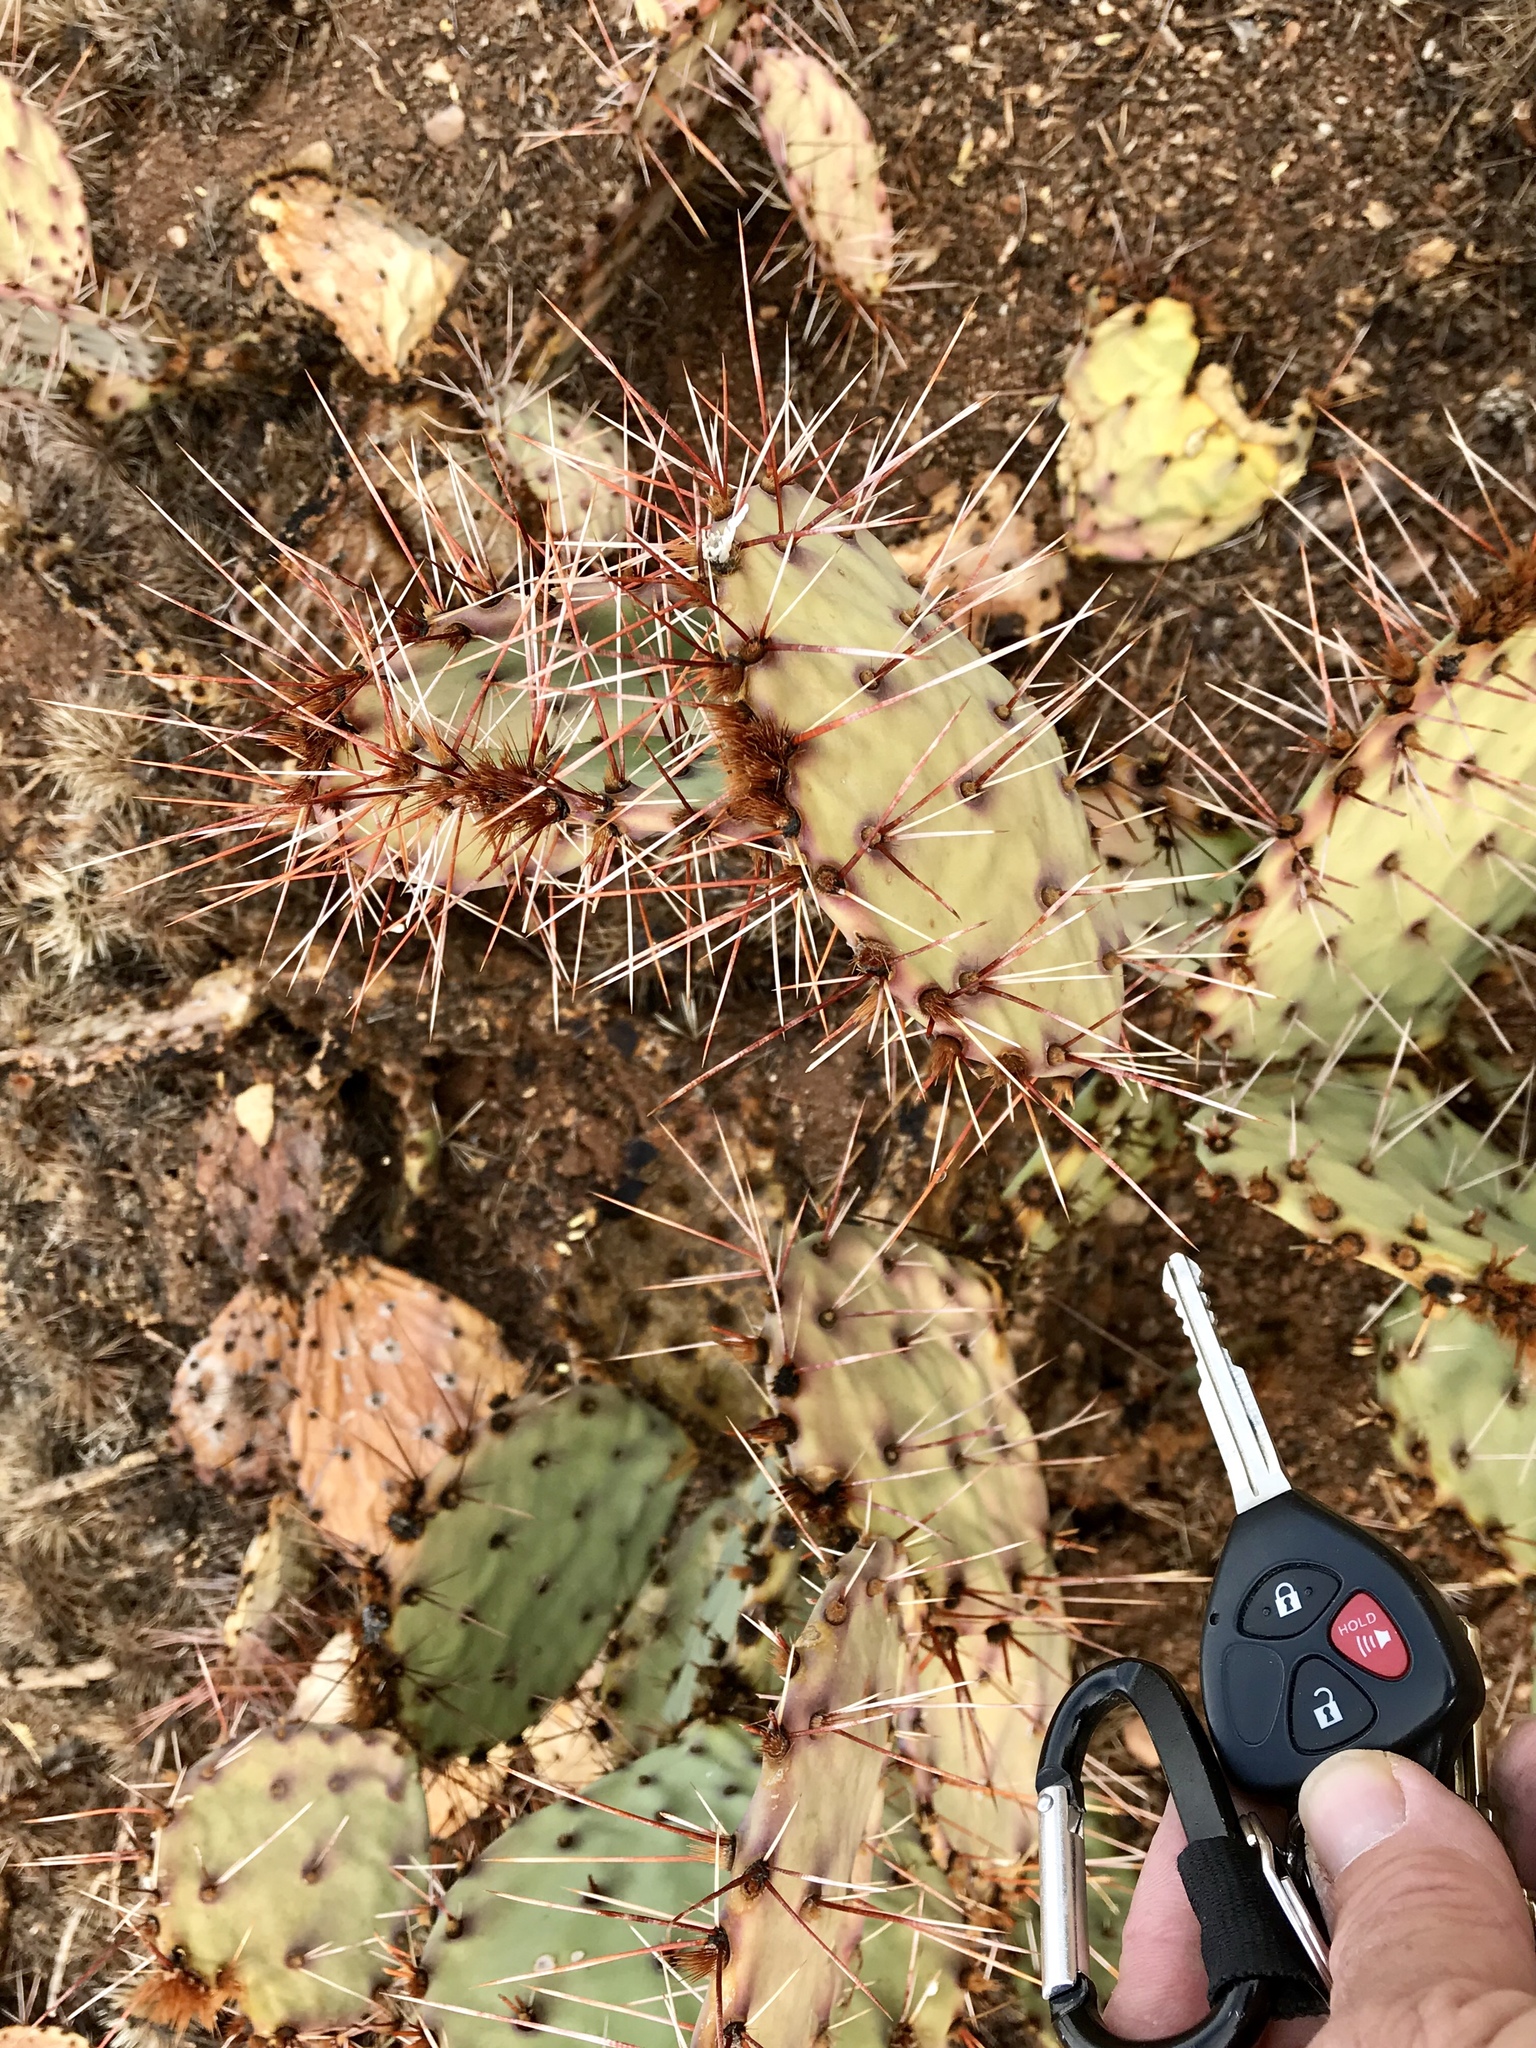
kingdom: Plantae
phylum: Tracheophyta
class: Magnoliopsida
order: Caryophyllales
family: Cactaceae
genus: Opuntia
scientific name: Opuntia phaeacantha
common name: New mexico prickly-pear
